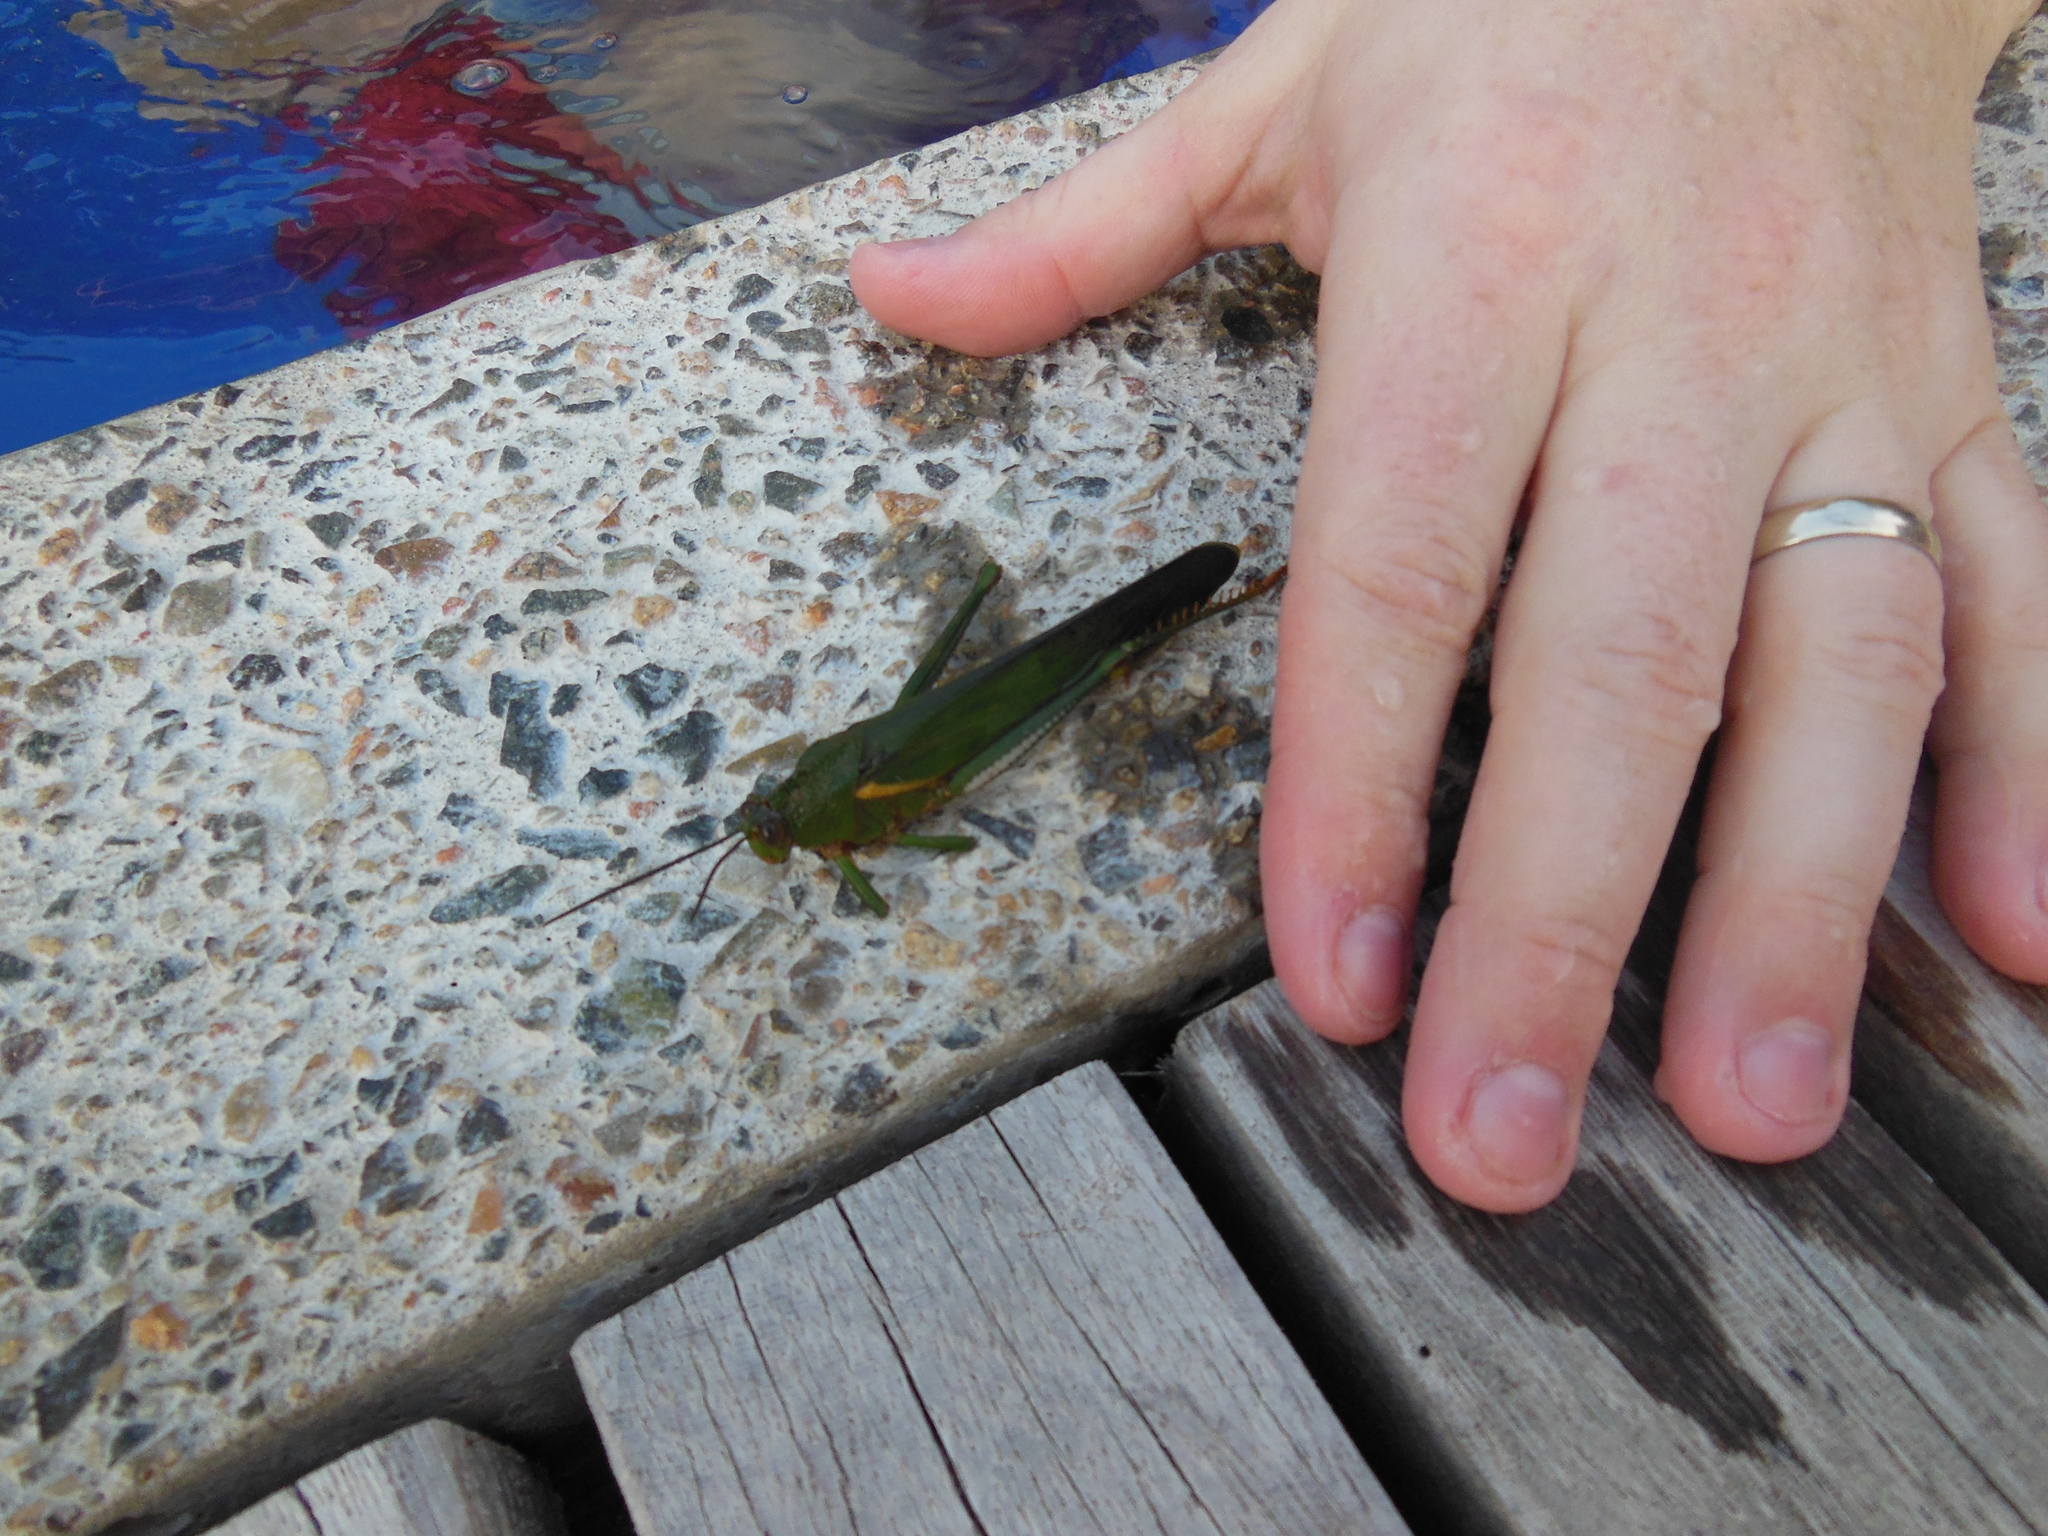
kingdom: Animalia
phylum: Arthropoda
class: Insecta
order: Orthoptera
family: Romaleidae
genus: Titanacris
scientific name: Titanacris albipes
